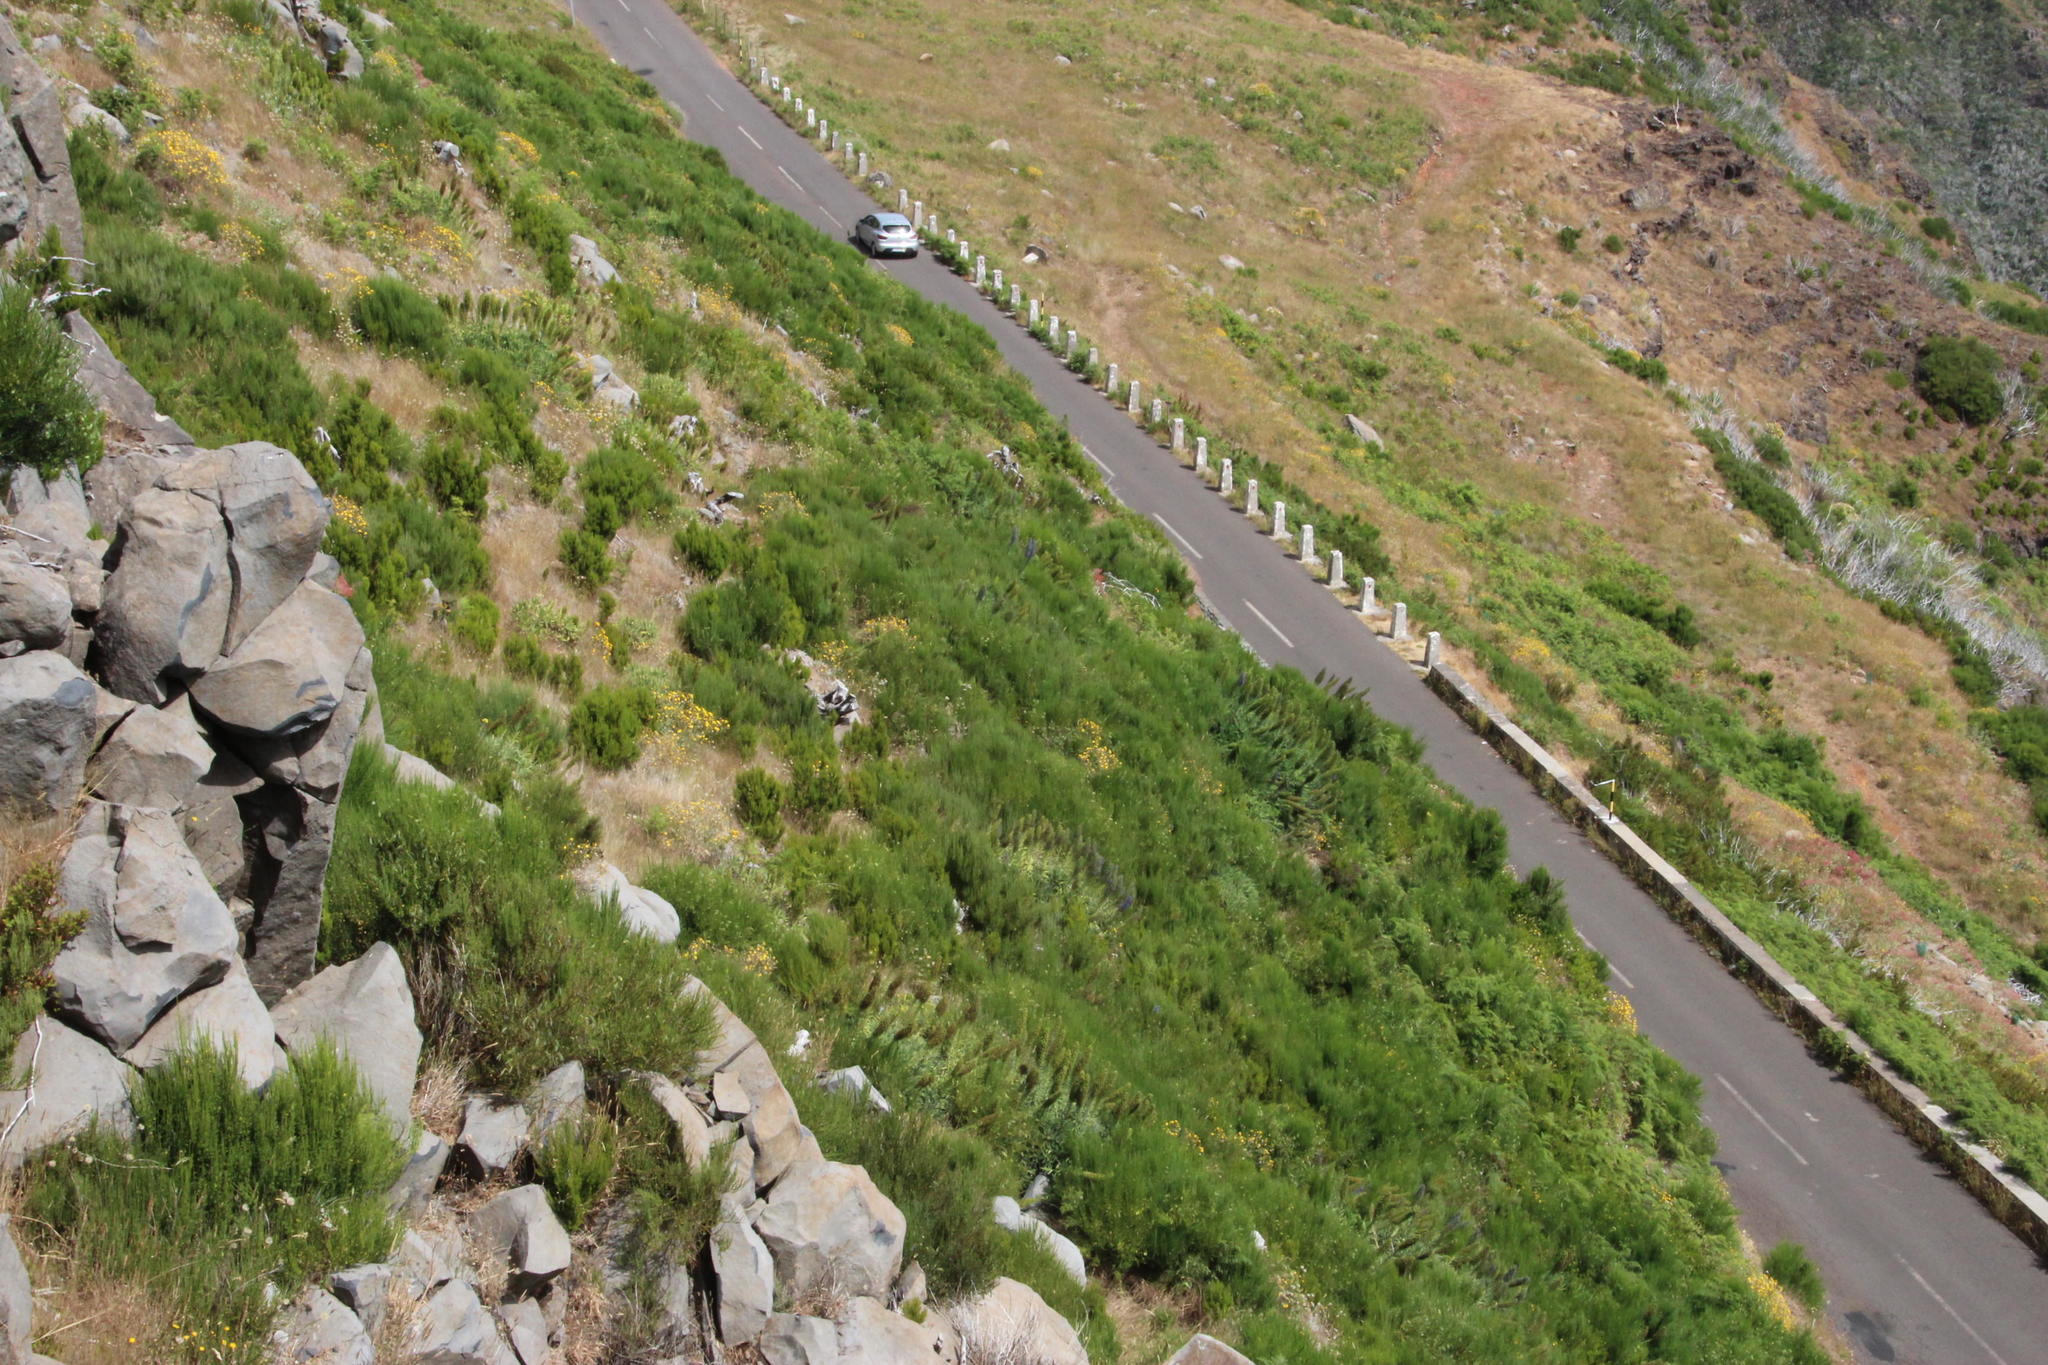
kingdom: Plantae
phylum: Tracheophyta
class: Magnoliopsida
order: Boraginales
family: Boraginaceae
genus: Echium
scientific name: Echium candicans
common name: Pride of madeira
